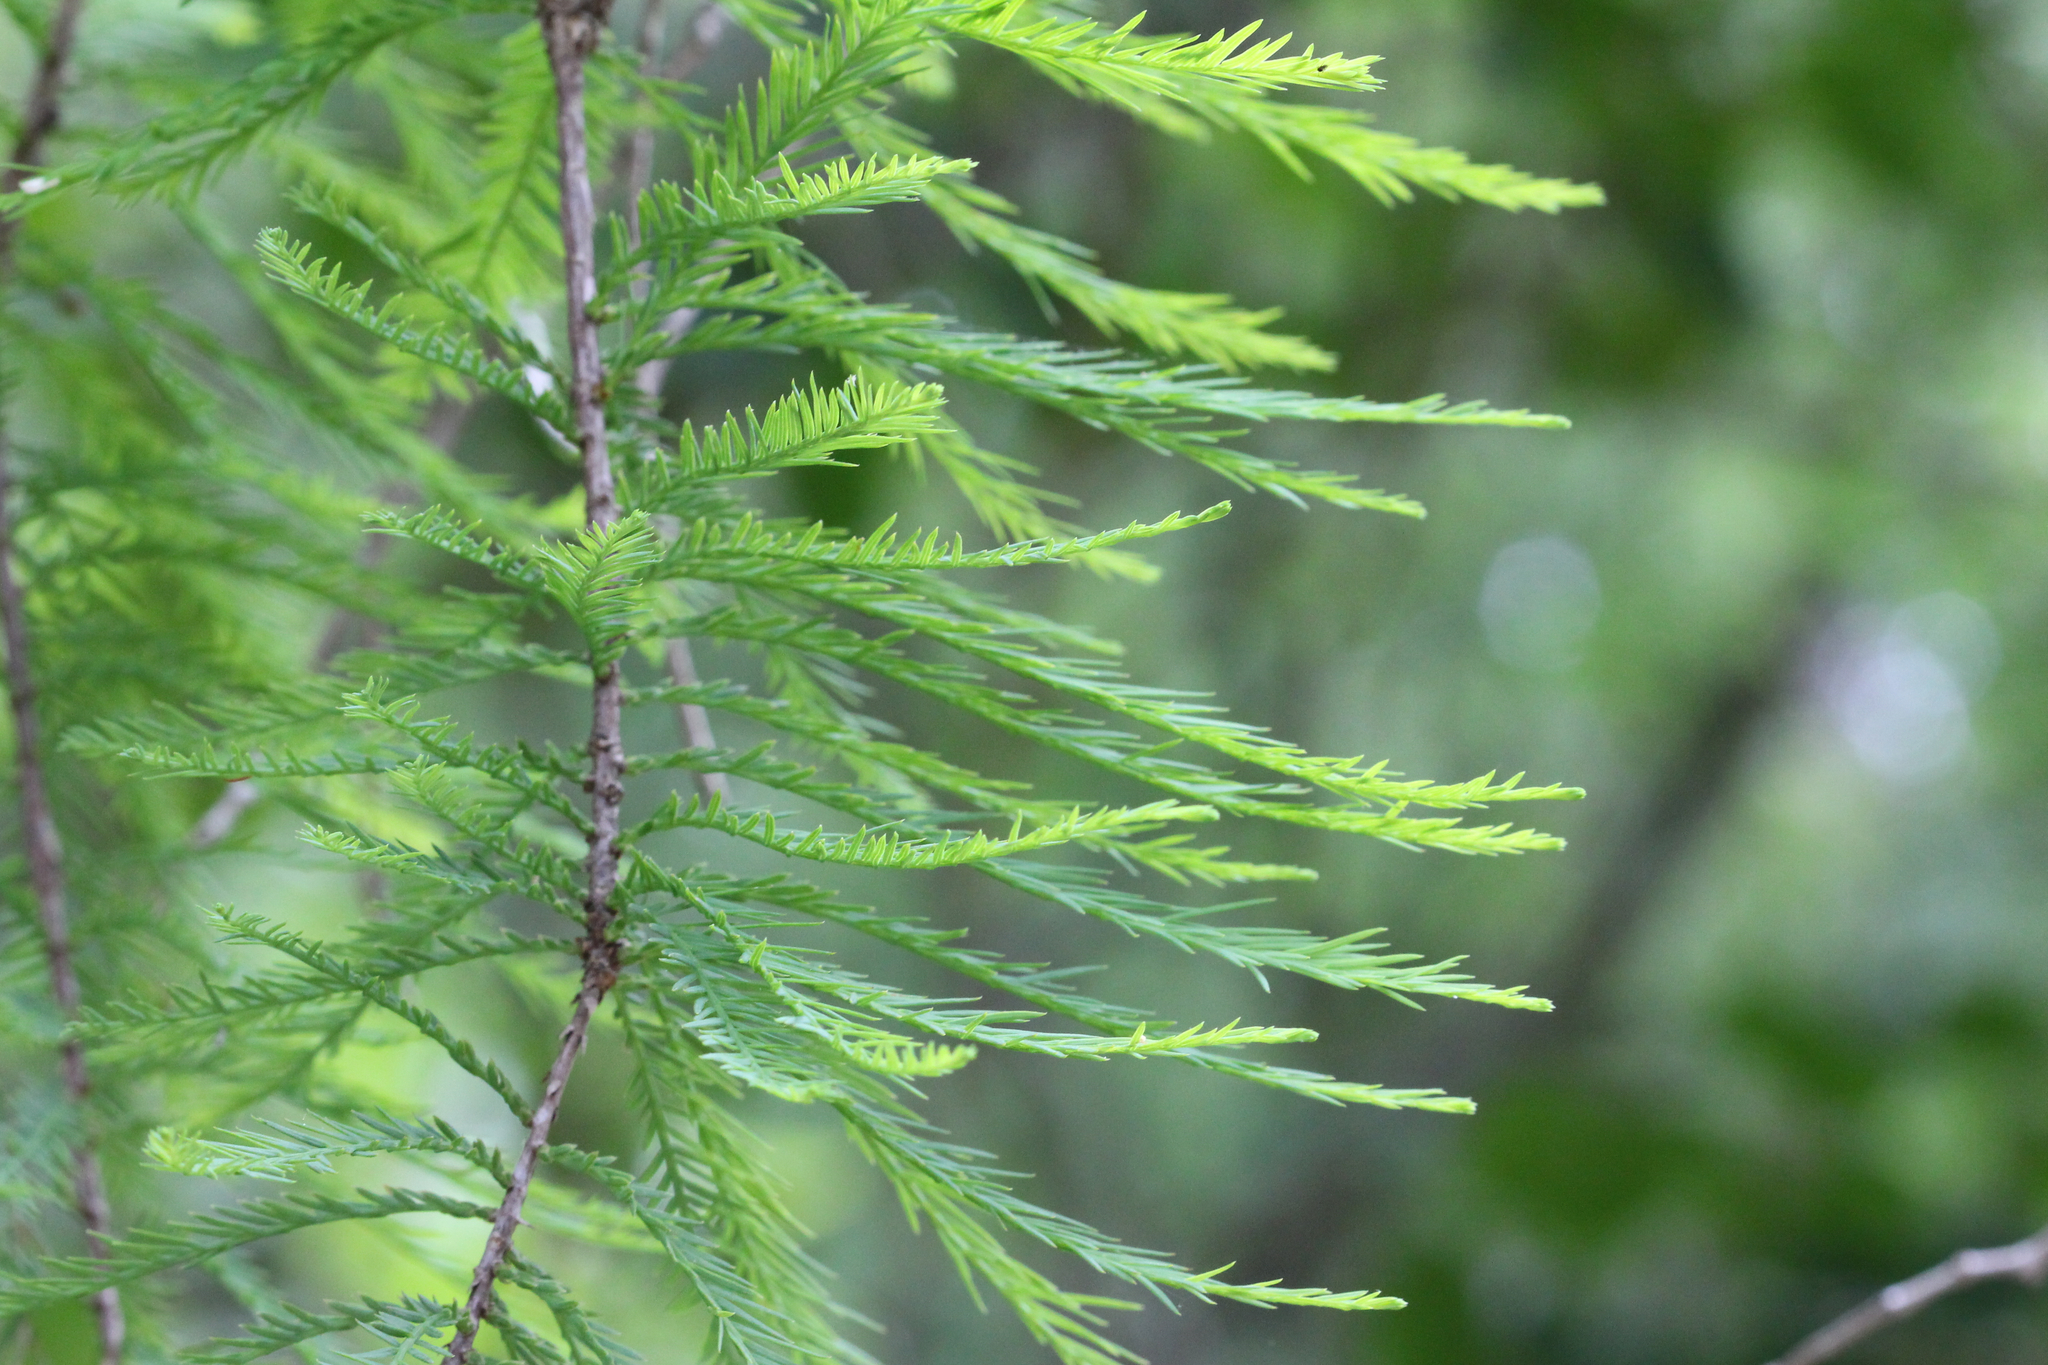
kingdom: Plantae
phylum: Tracheophyta
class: Pinopsida
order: Pinales
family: Cupressaceae
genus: Taxodium
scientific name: Taxodium distichum
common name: Bald cypress
